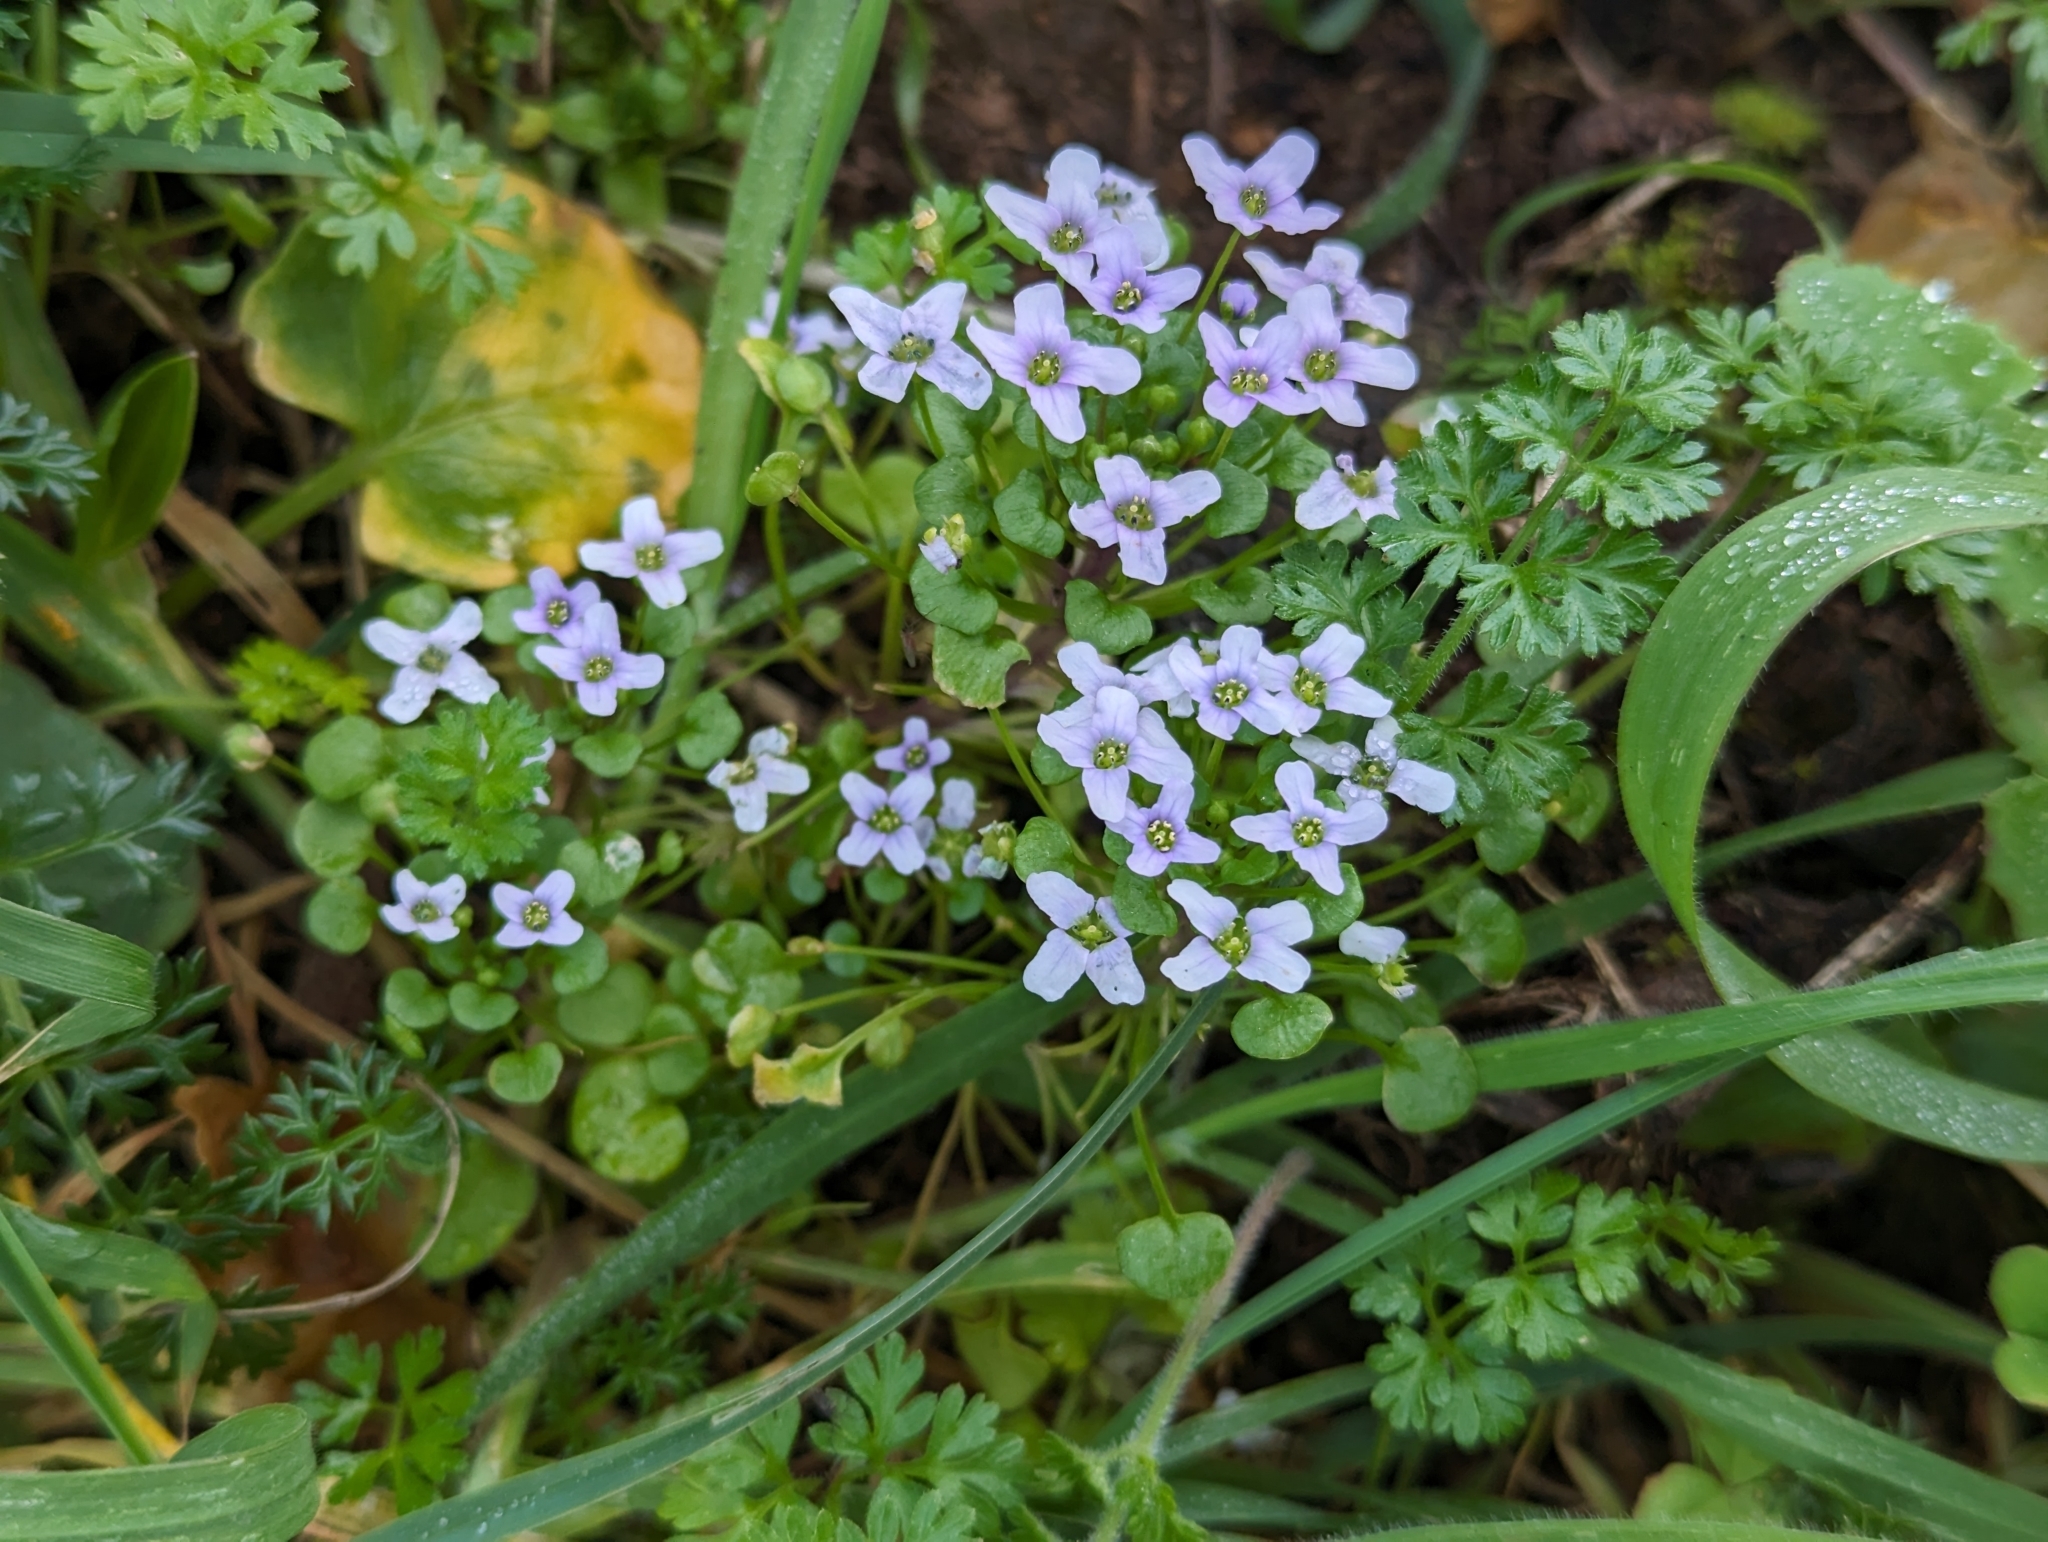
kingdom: Plantae
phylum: Tracheophyta
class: Magnoliopsida
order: Brassicales
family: Brassicaceae
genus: Ionopsidium
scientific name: Ionopsidium acaule
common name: False diamondflower
